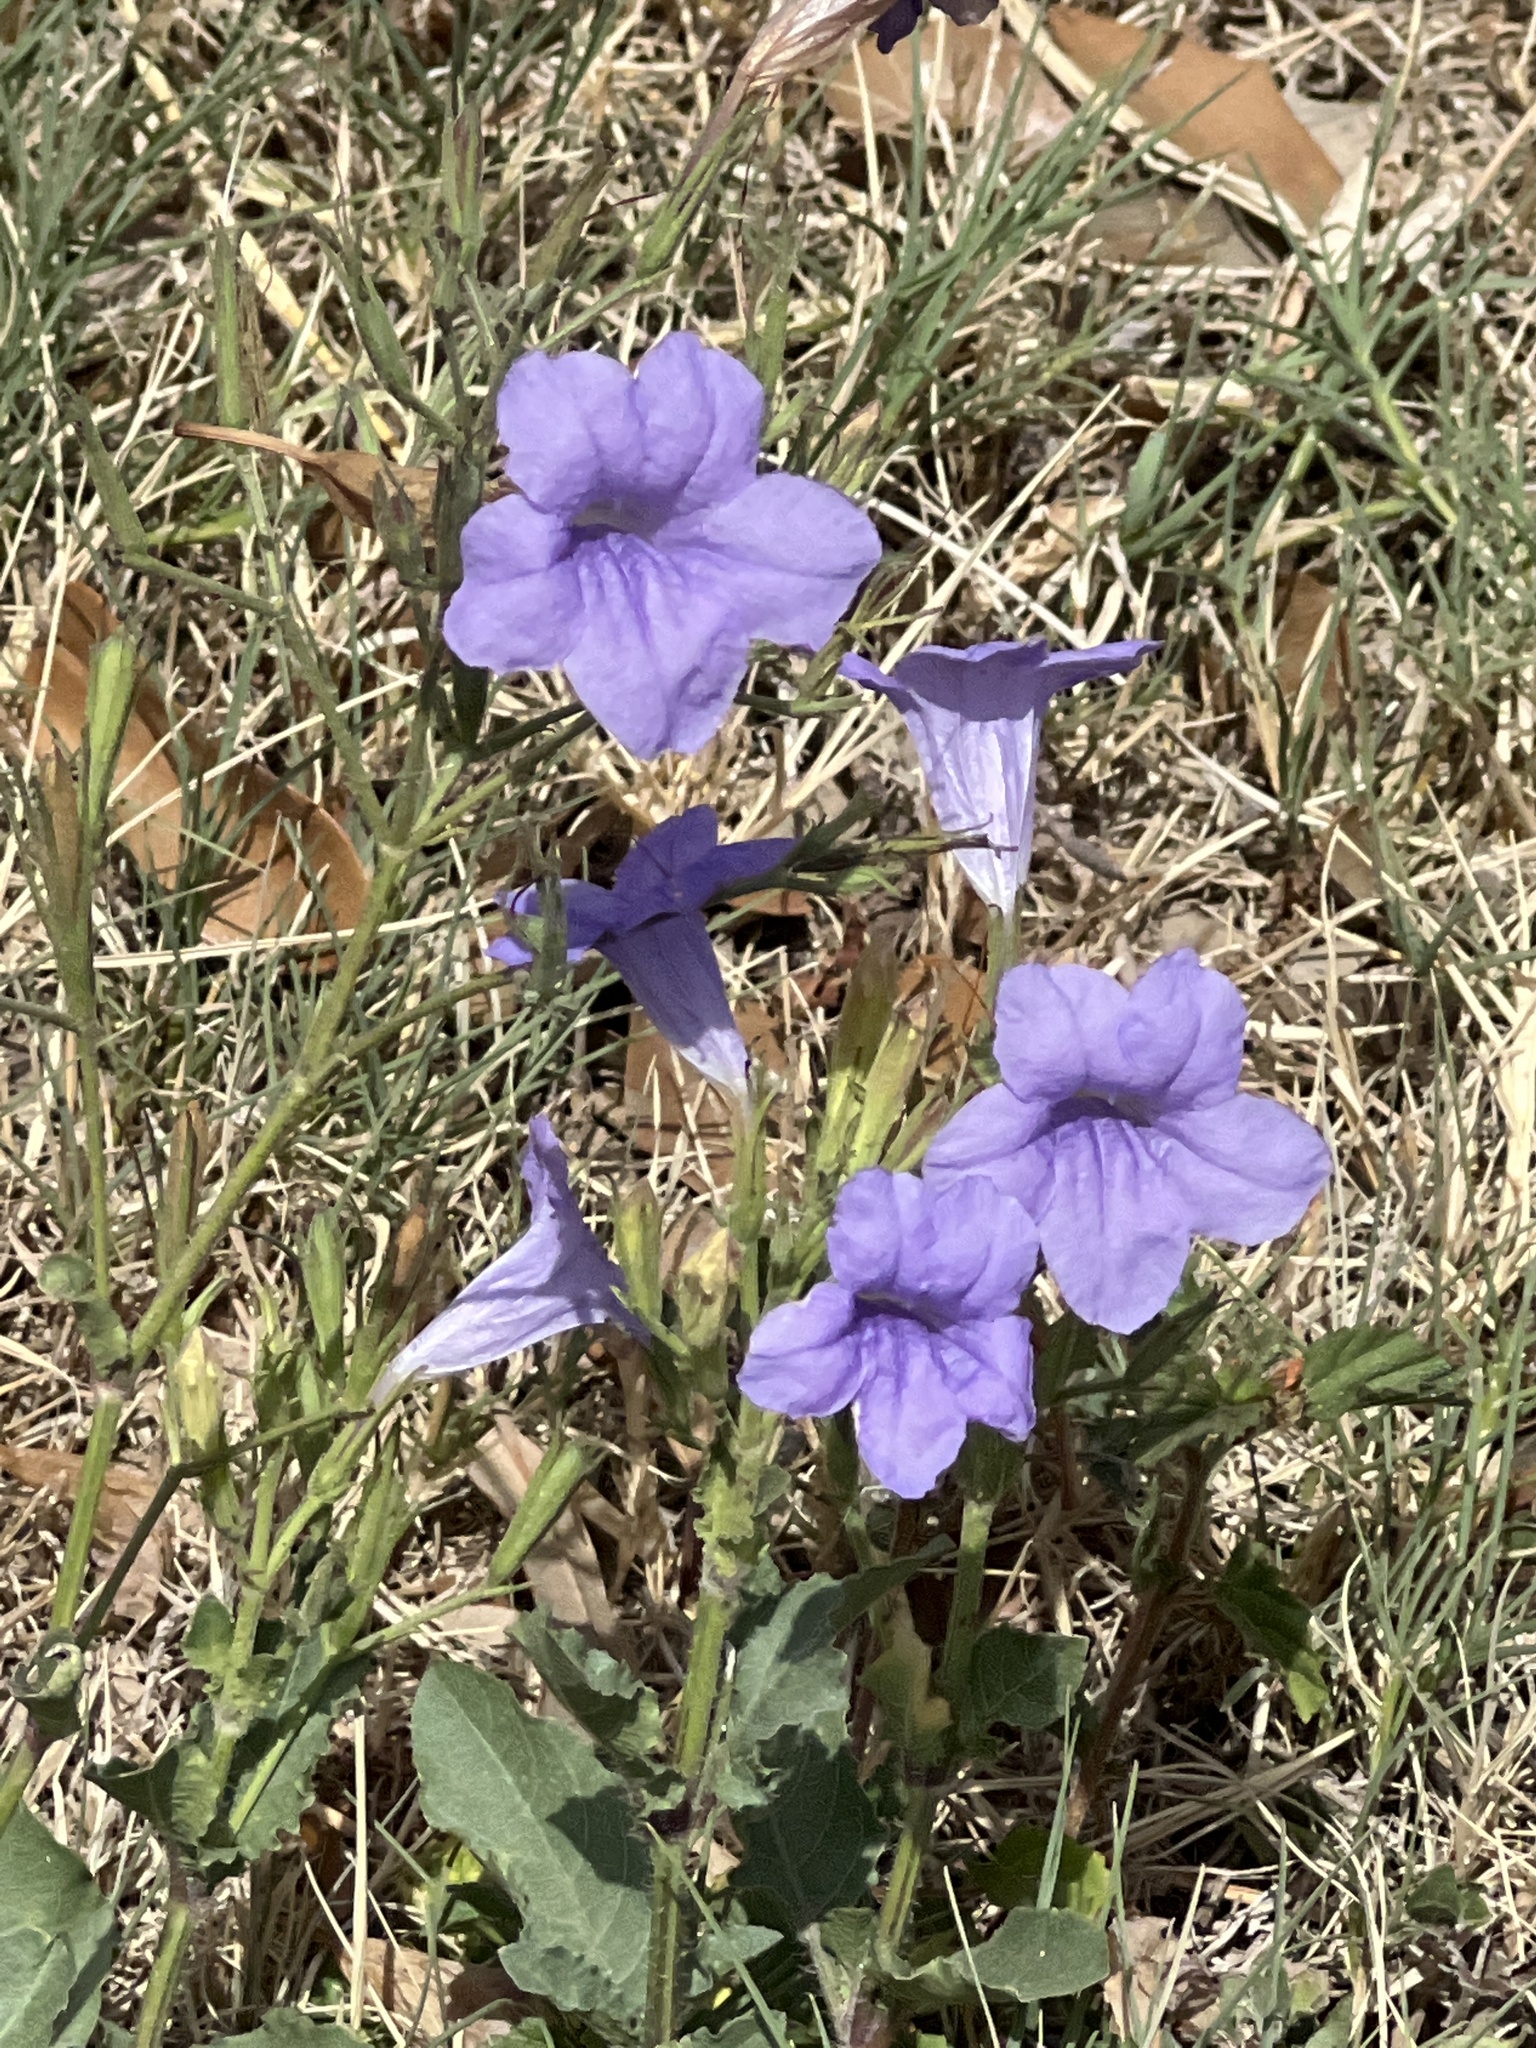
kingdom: Plantae
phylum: Tracheophyta
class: Magnoliopsida
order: Lamiales
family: Acanthaceae
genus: Ruellia
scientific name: Ruellia ciliatiflora
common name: Hairyflower wild petunia
